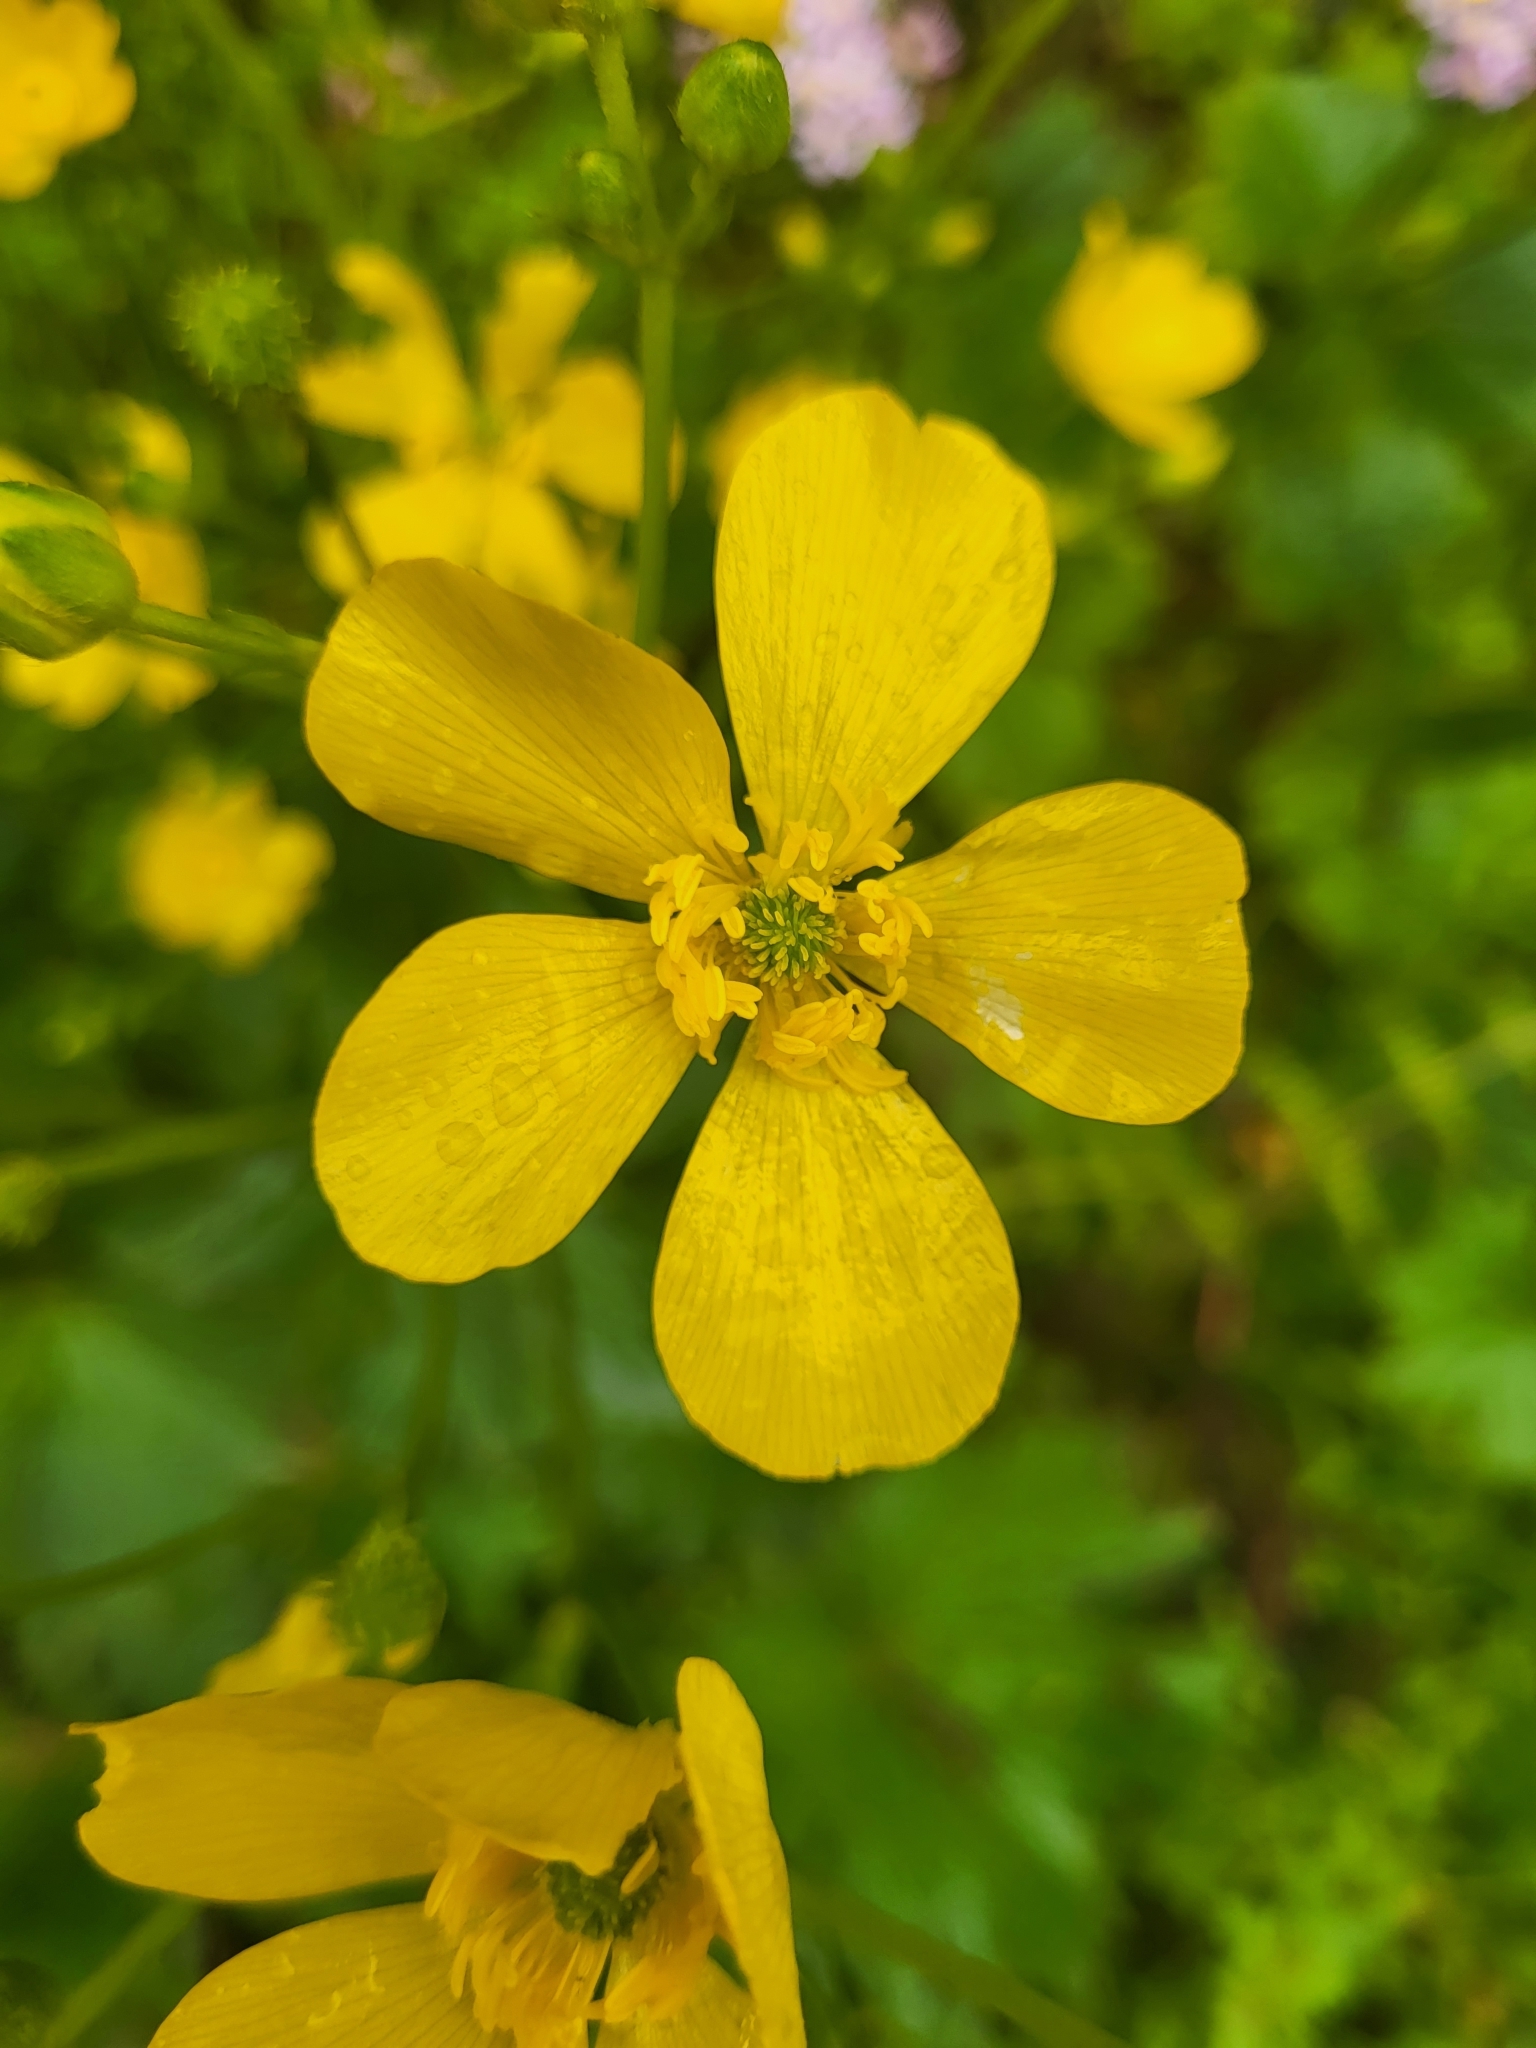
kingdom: Plantae
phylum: Tracheophyta
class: Magnoliopsida
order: Ranunculales
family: Ranunculaceae
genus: Ranunculus
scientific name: Ranunculus cortusifolius
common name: Azores buttercup
